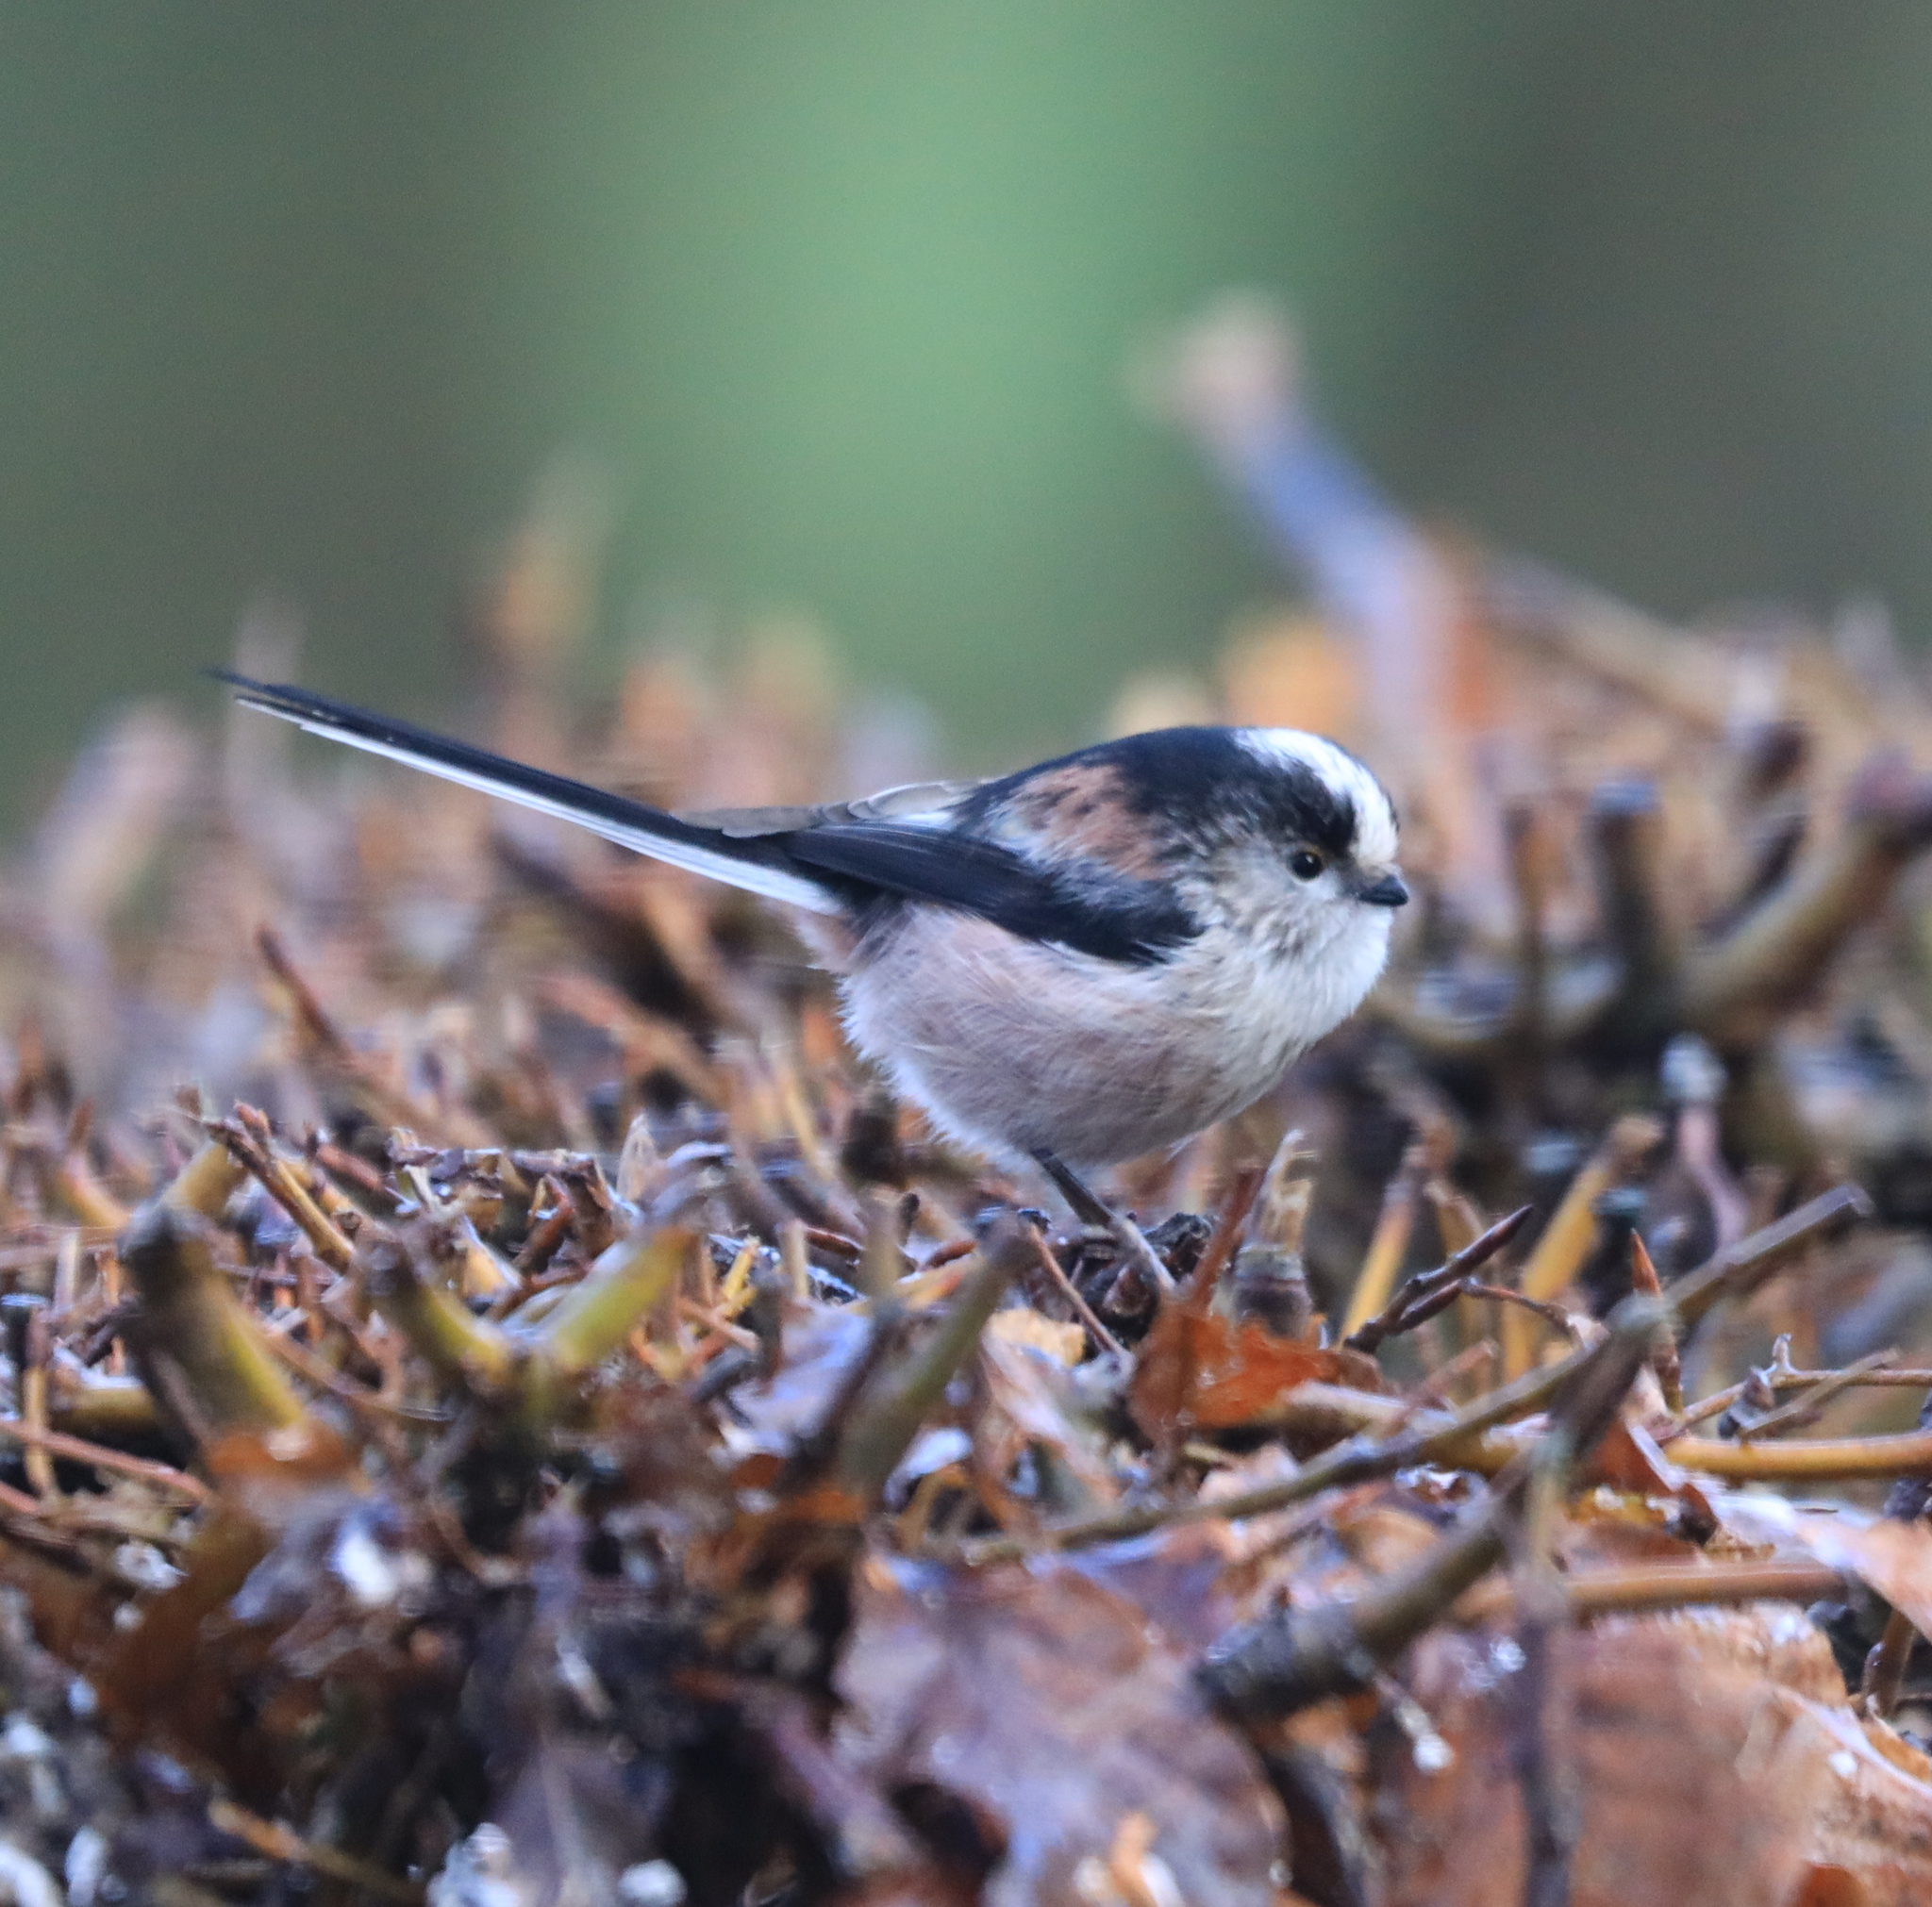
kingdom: Animalia
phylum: Chordata
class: Aves
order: Passeriformes
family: Aegithalidae
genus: Aegithalos
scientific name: Aegithalos caudatus
